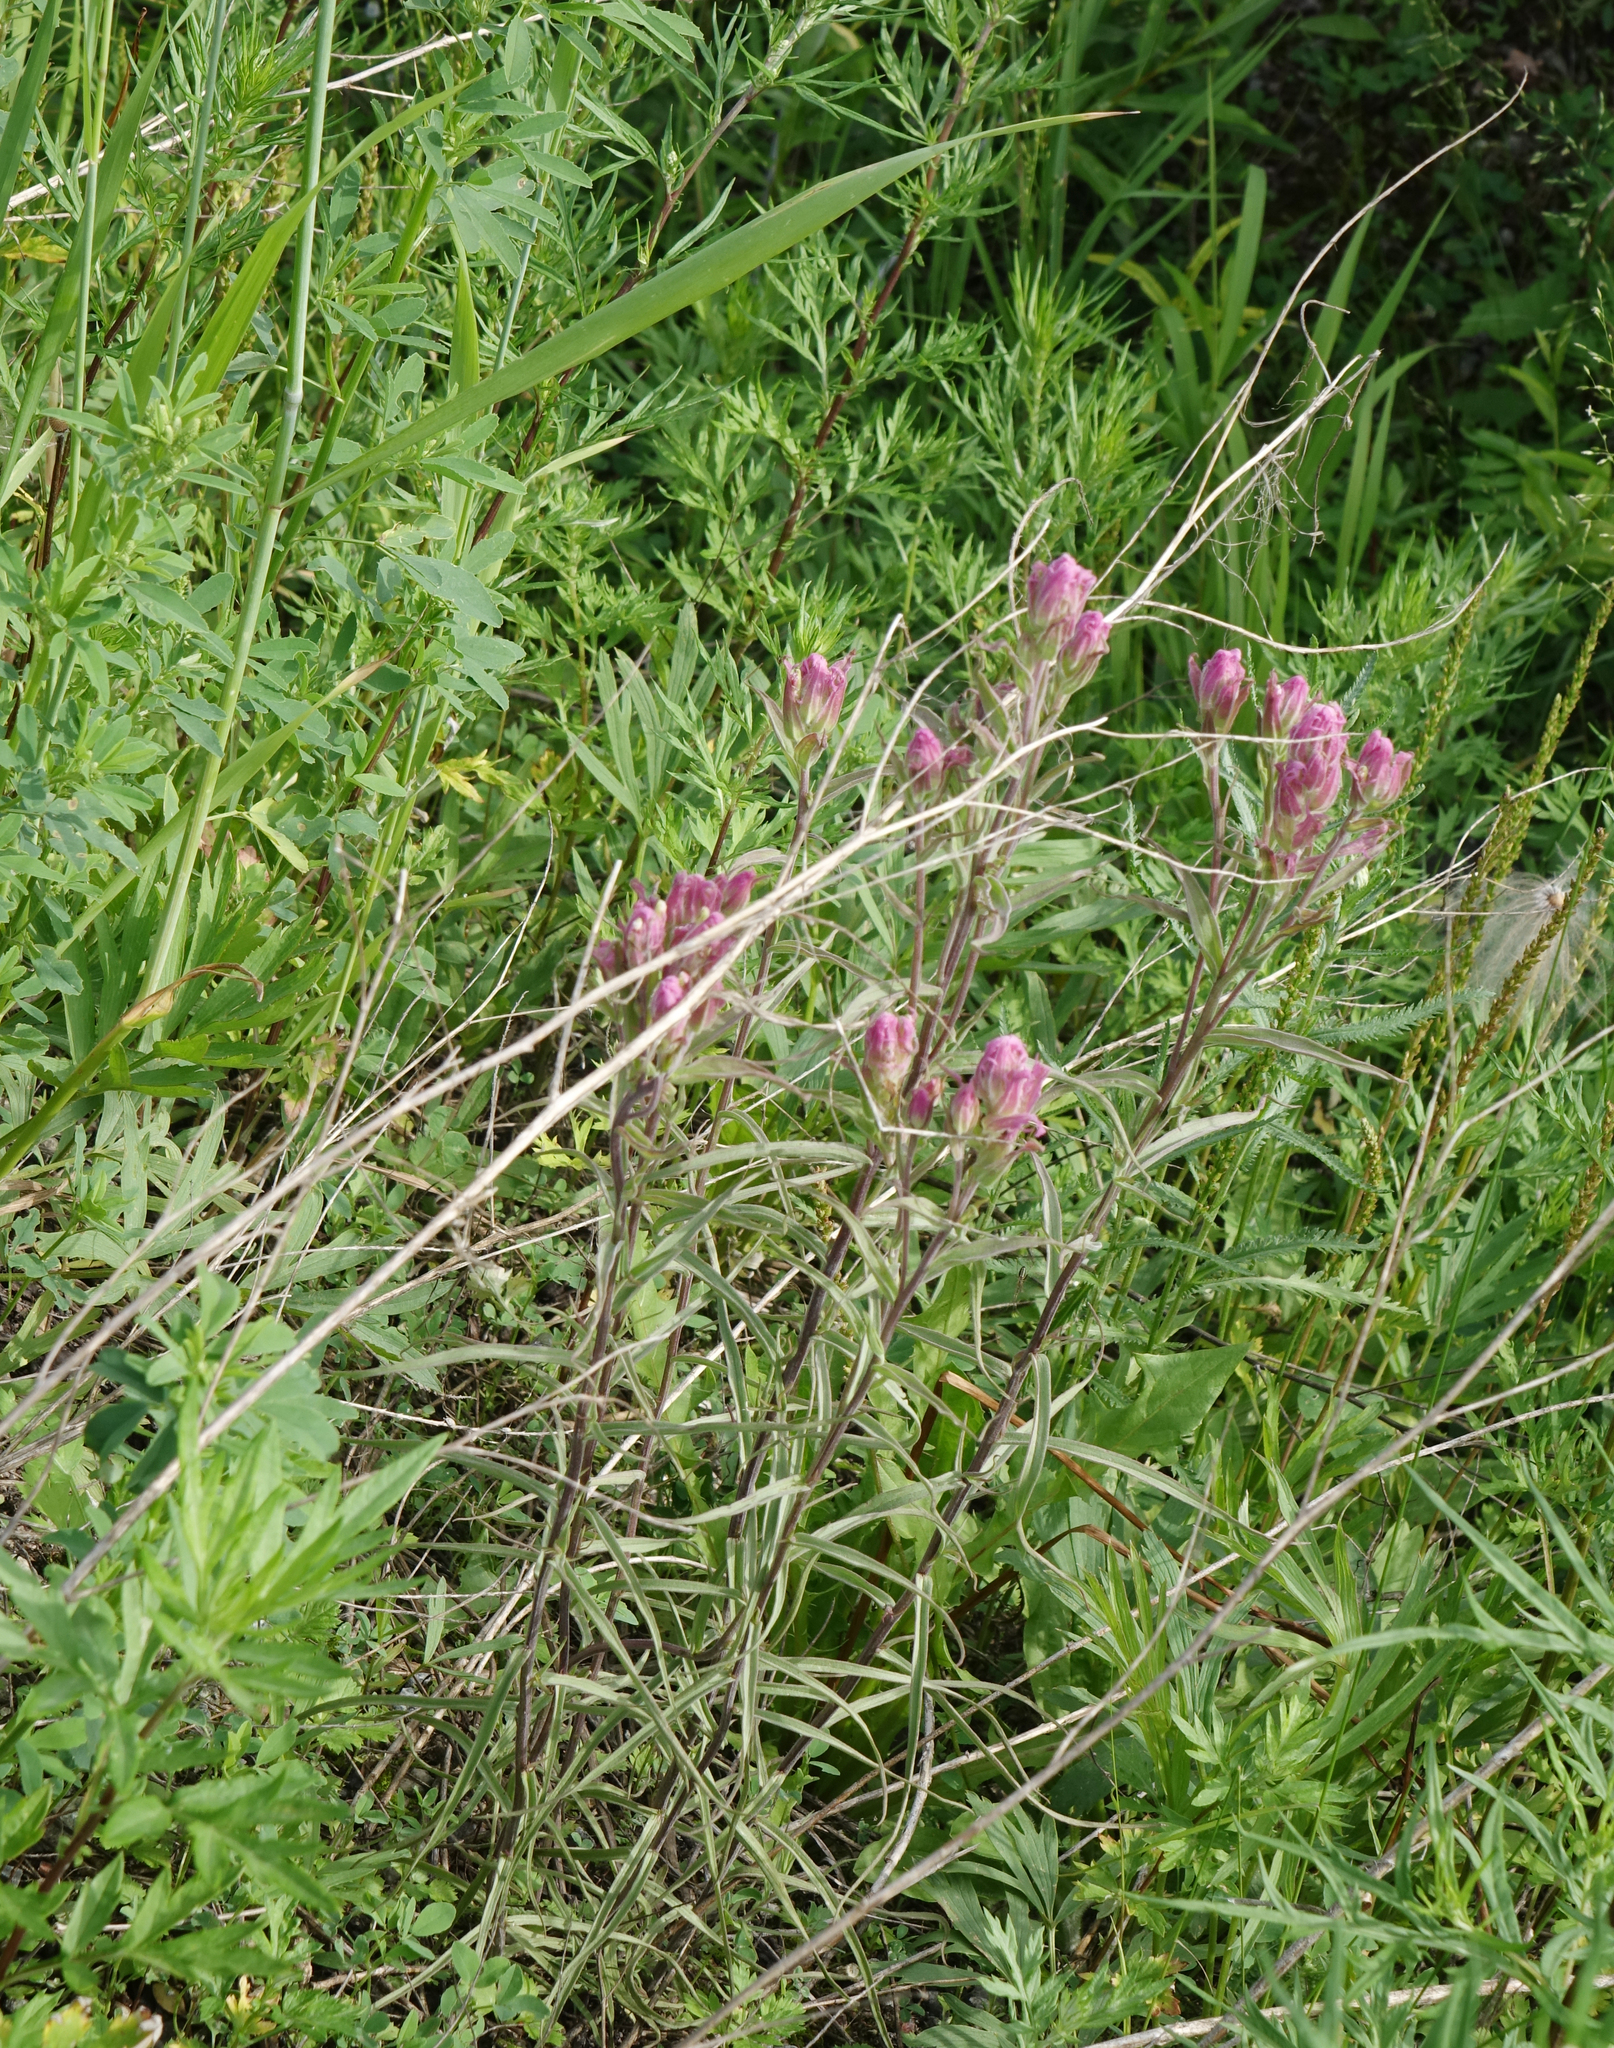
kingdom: Plantae
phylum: Tracheophyta
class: Magnoliopsida
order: Lamiales
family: Orobanchaceae
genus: Castilleja
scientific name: Castilleja rubra
